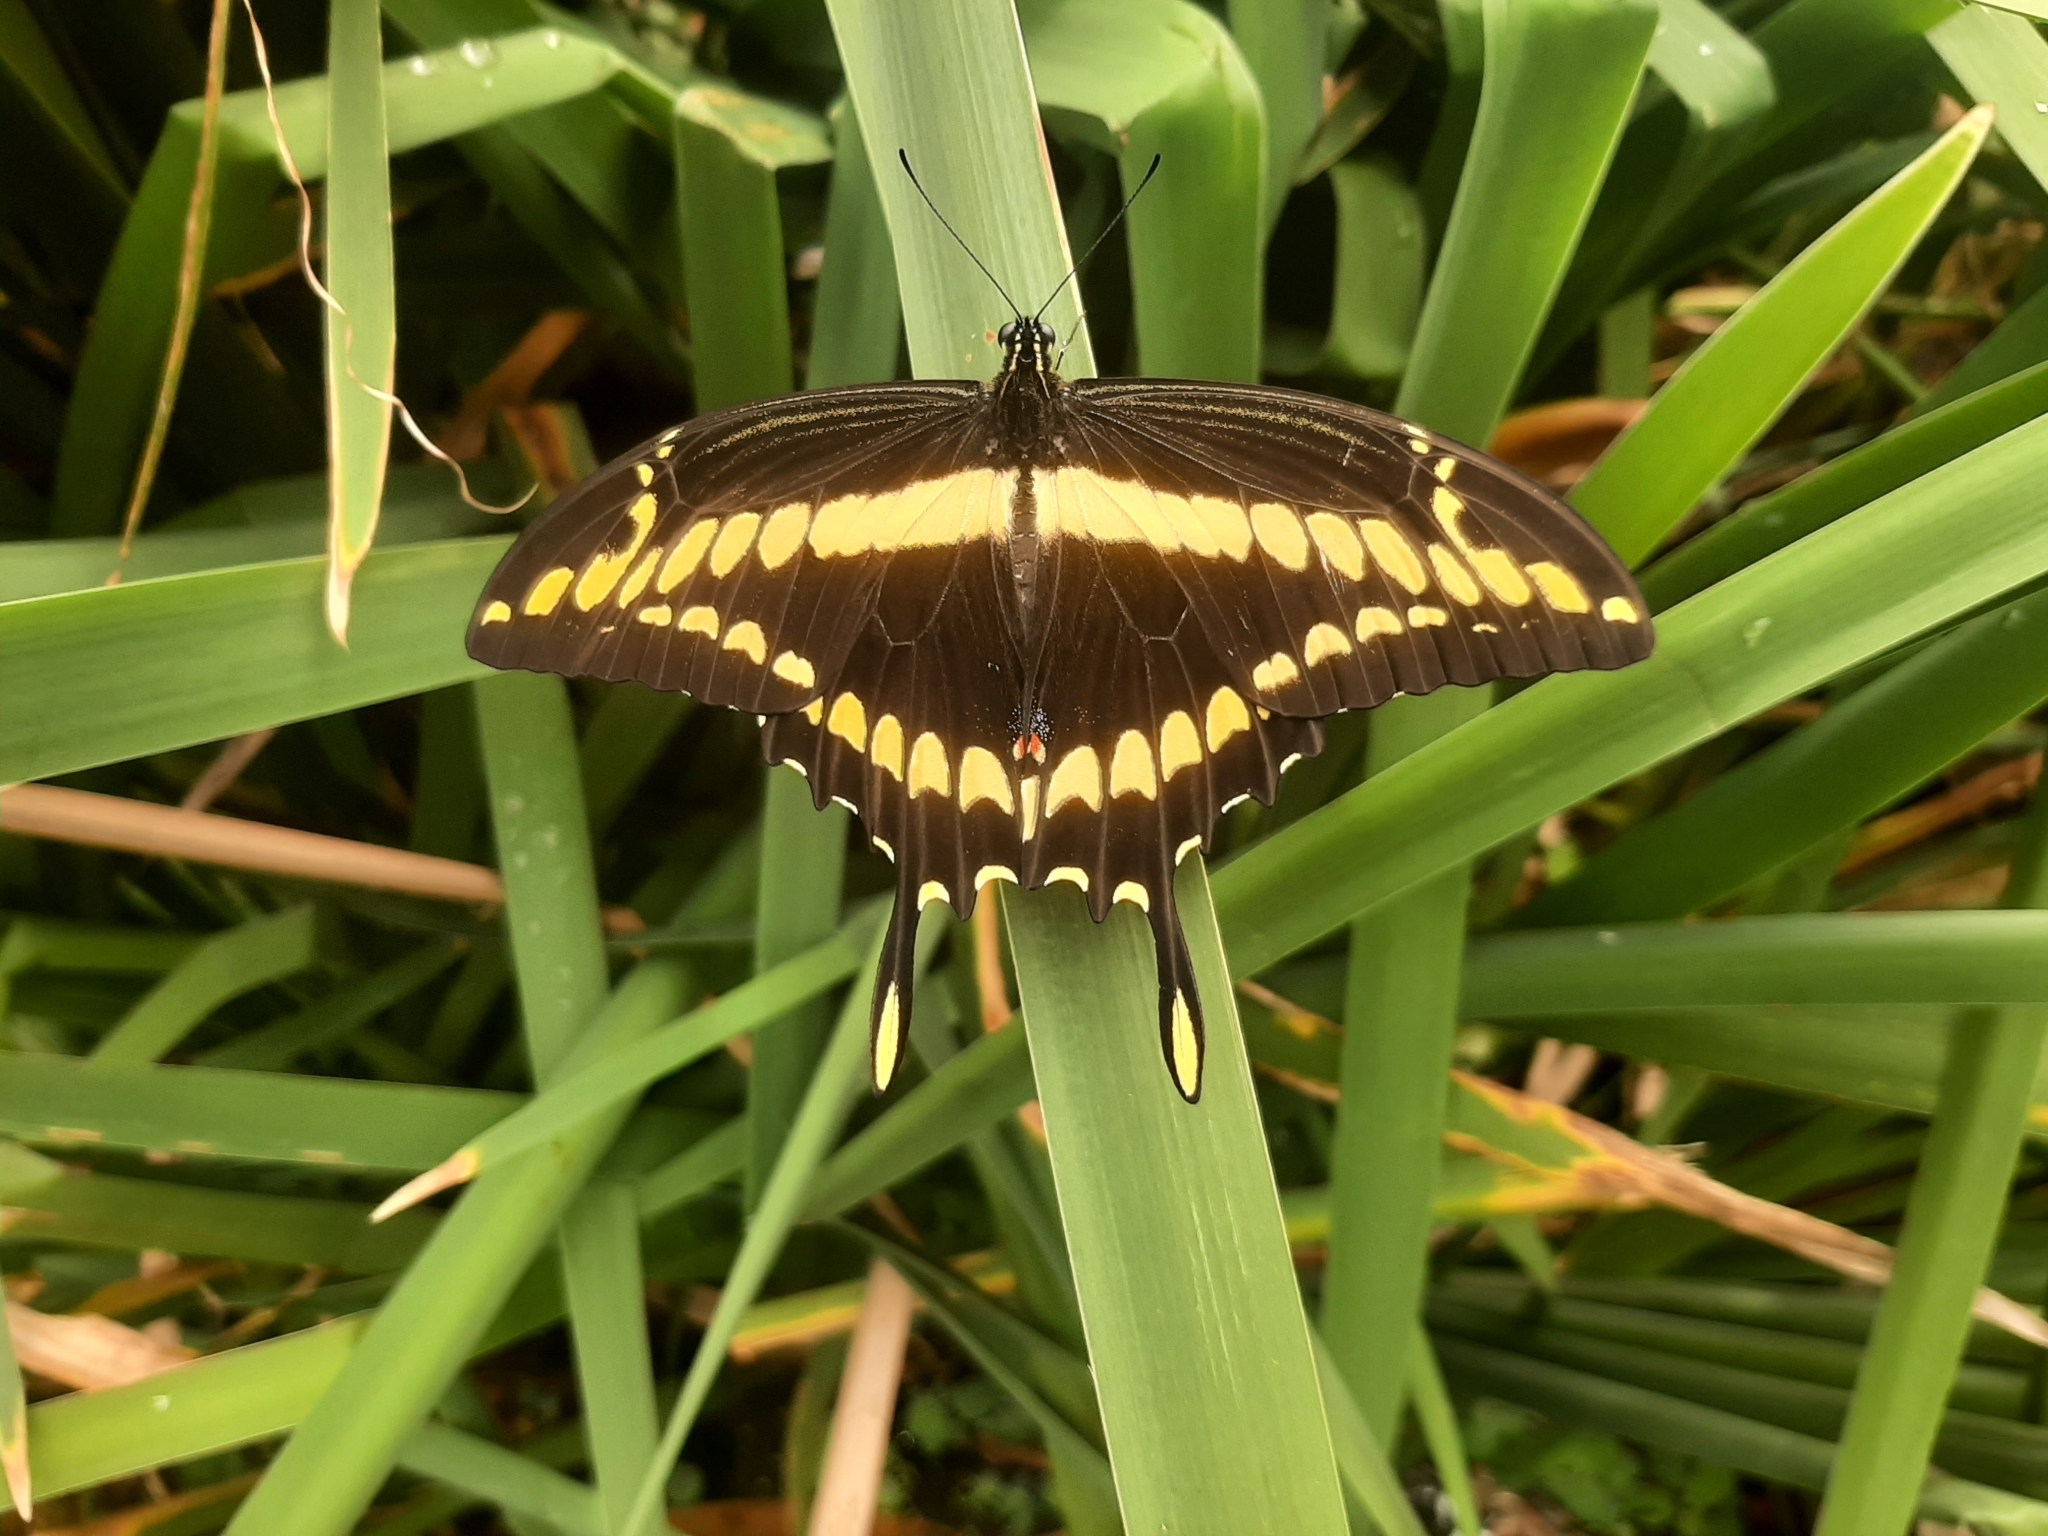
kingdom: Animalia
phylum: Arthropoda
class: Insecta
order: Lepidoptera
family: Papilionidae
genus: Papilio
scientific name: Papilio thoas
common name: King swallowtail
